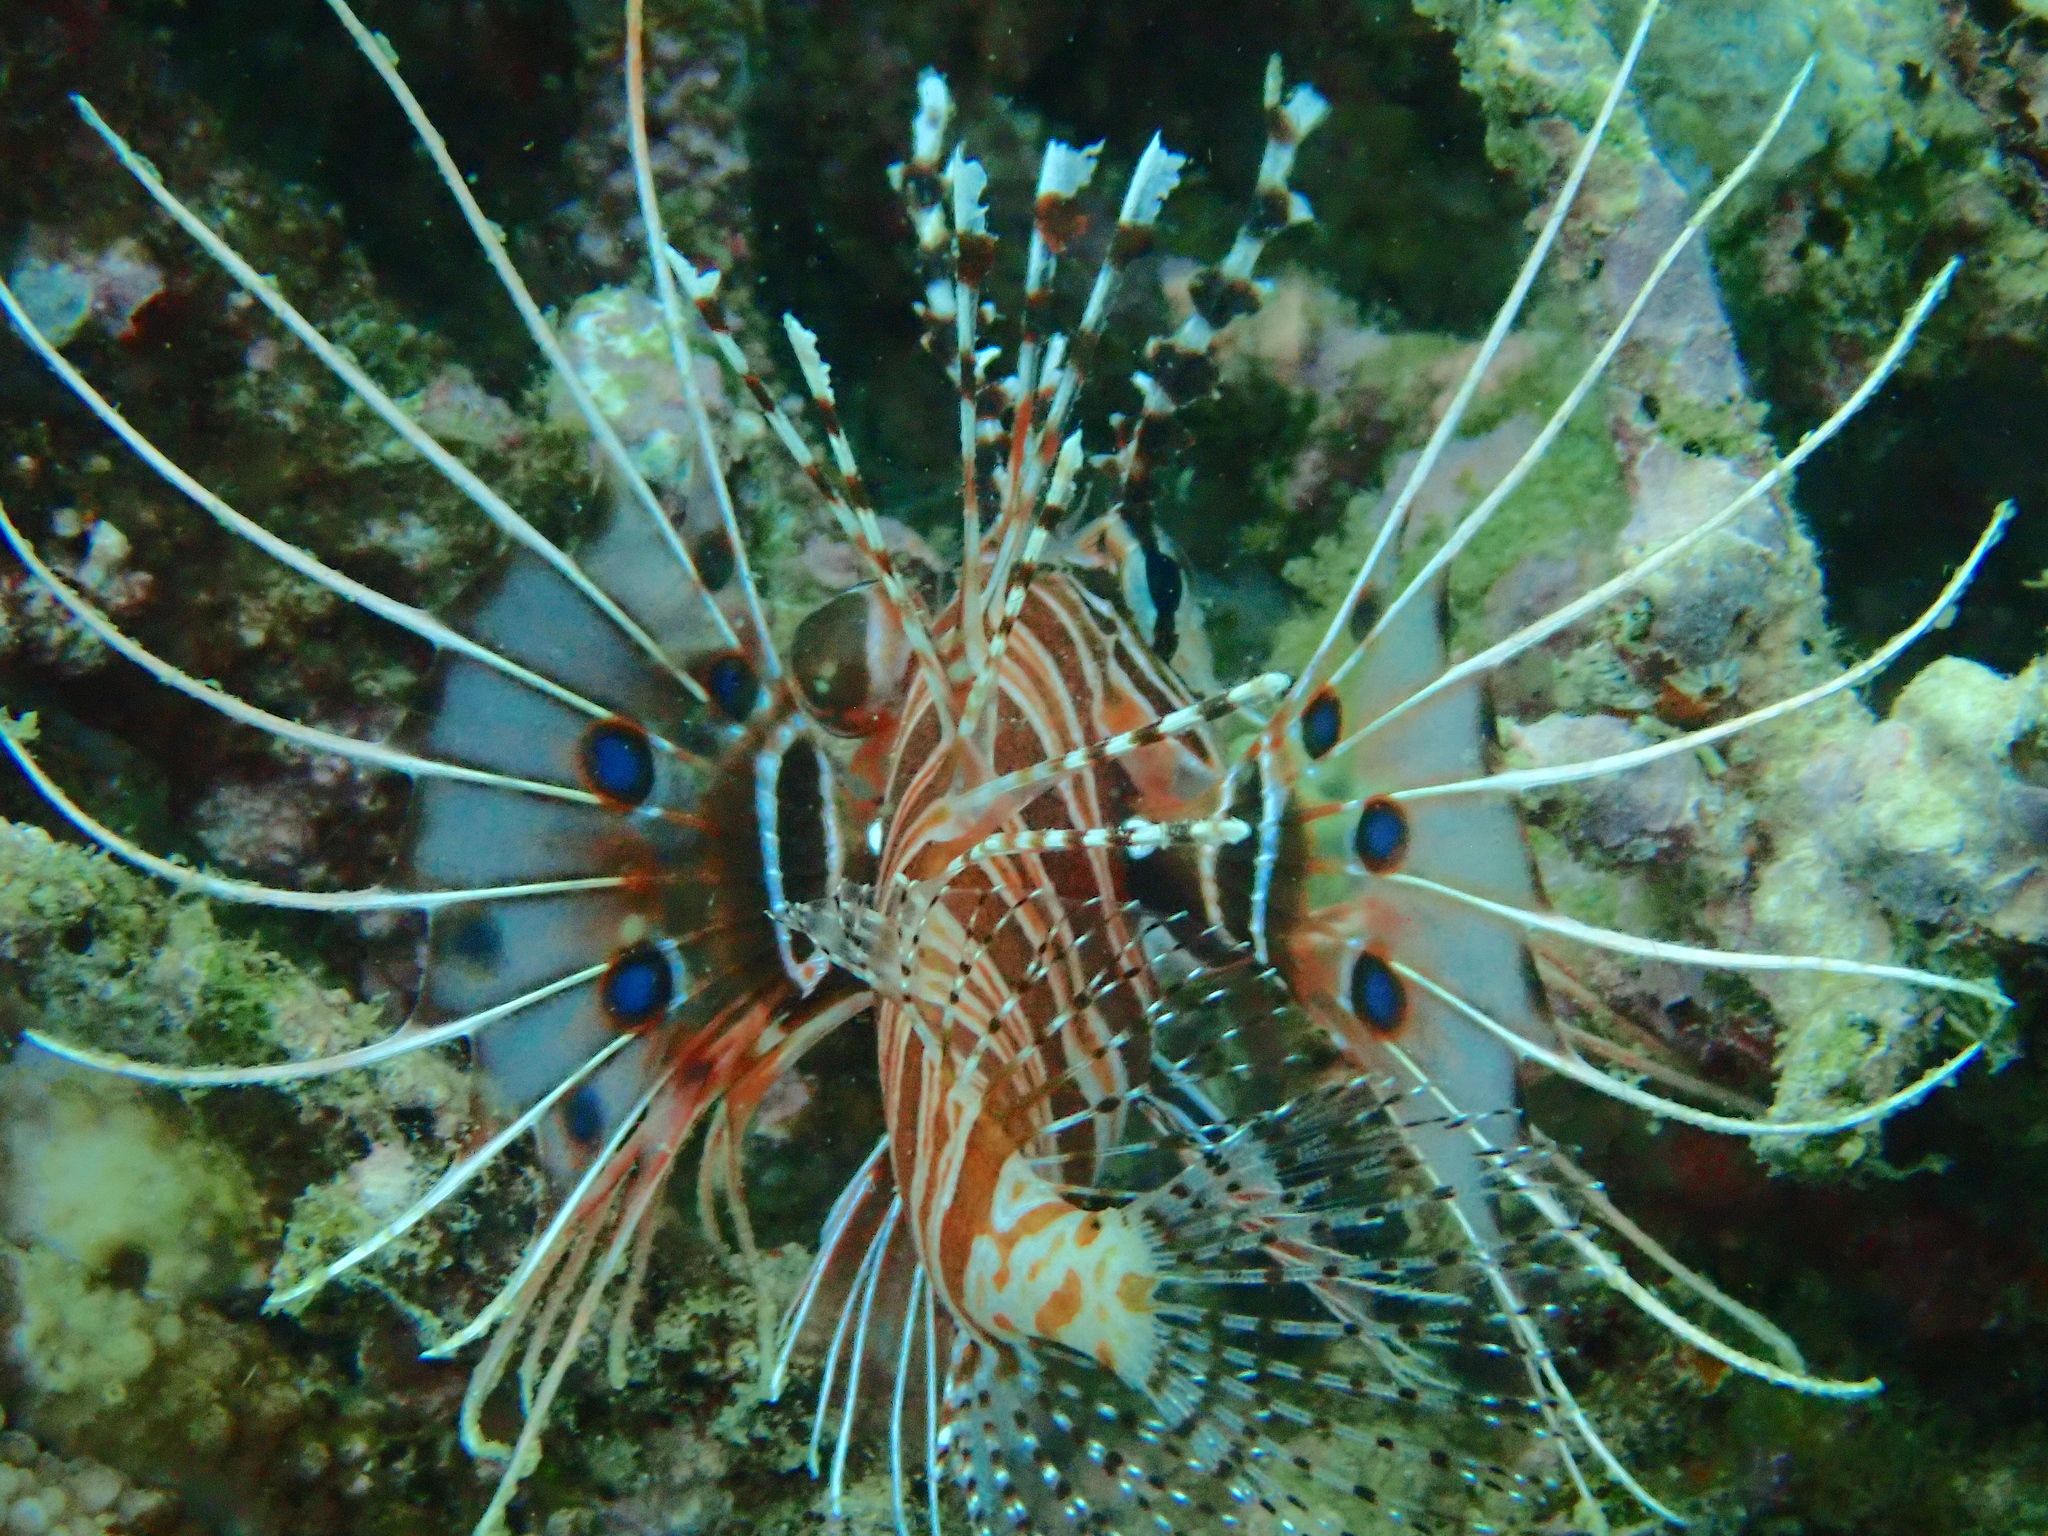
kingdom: Animalia
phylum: Chordata
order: Scorpaeniformes
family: Scorpaenidae
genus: Pterois
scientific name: Pterois antennata
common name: Spotfin lionfish
